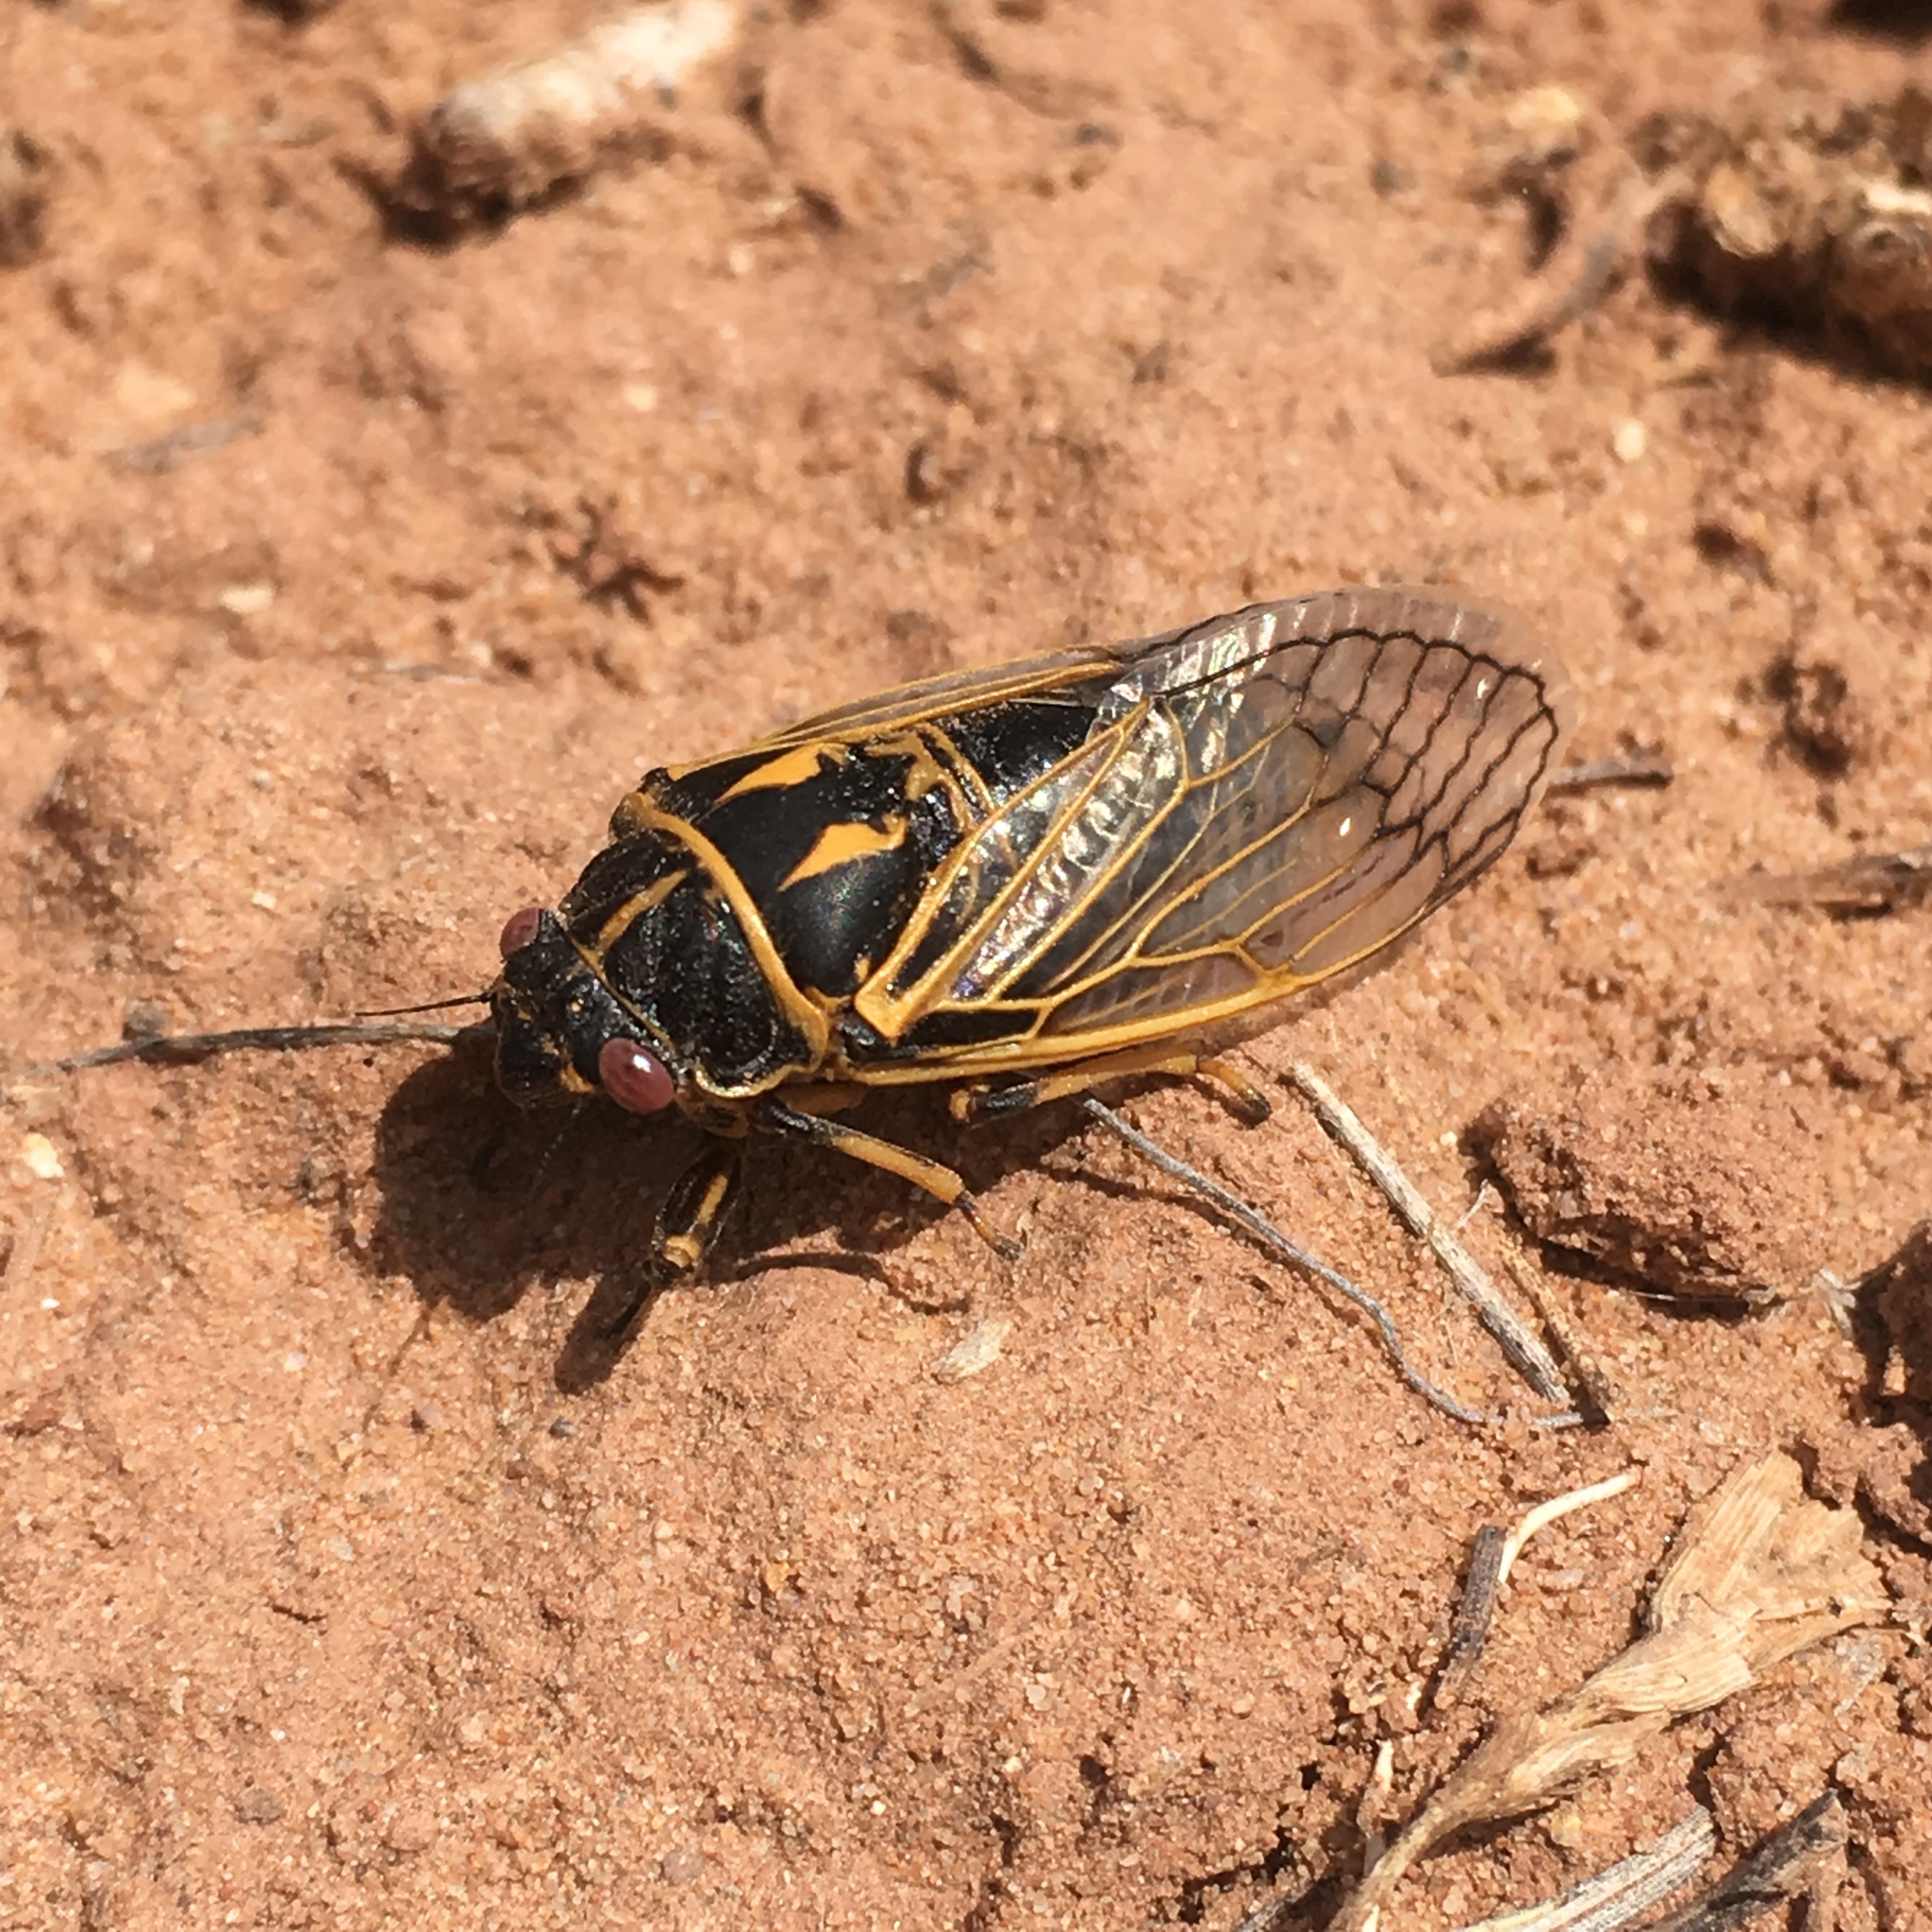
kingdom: Animalia
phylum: Arthropoda
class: Insecta
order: Hemiptera
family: Cicadidae
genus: Okanagana
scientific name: Okanagana synodica
